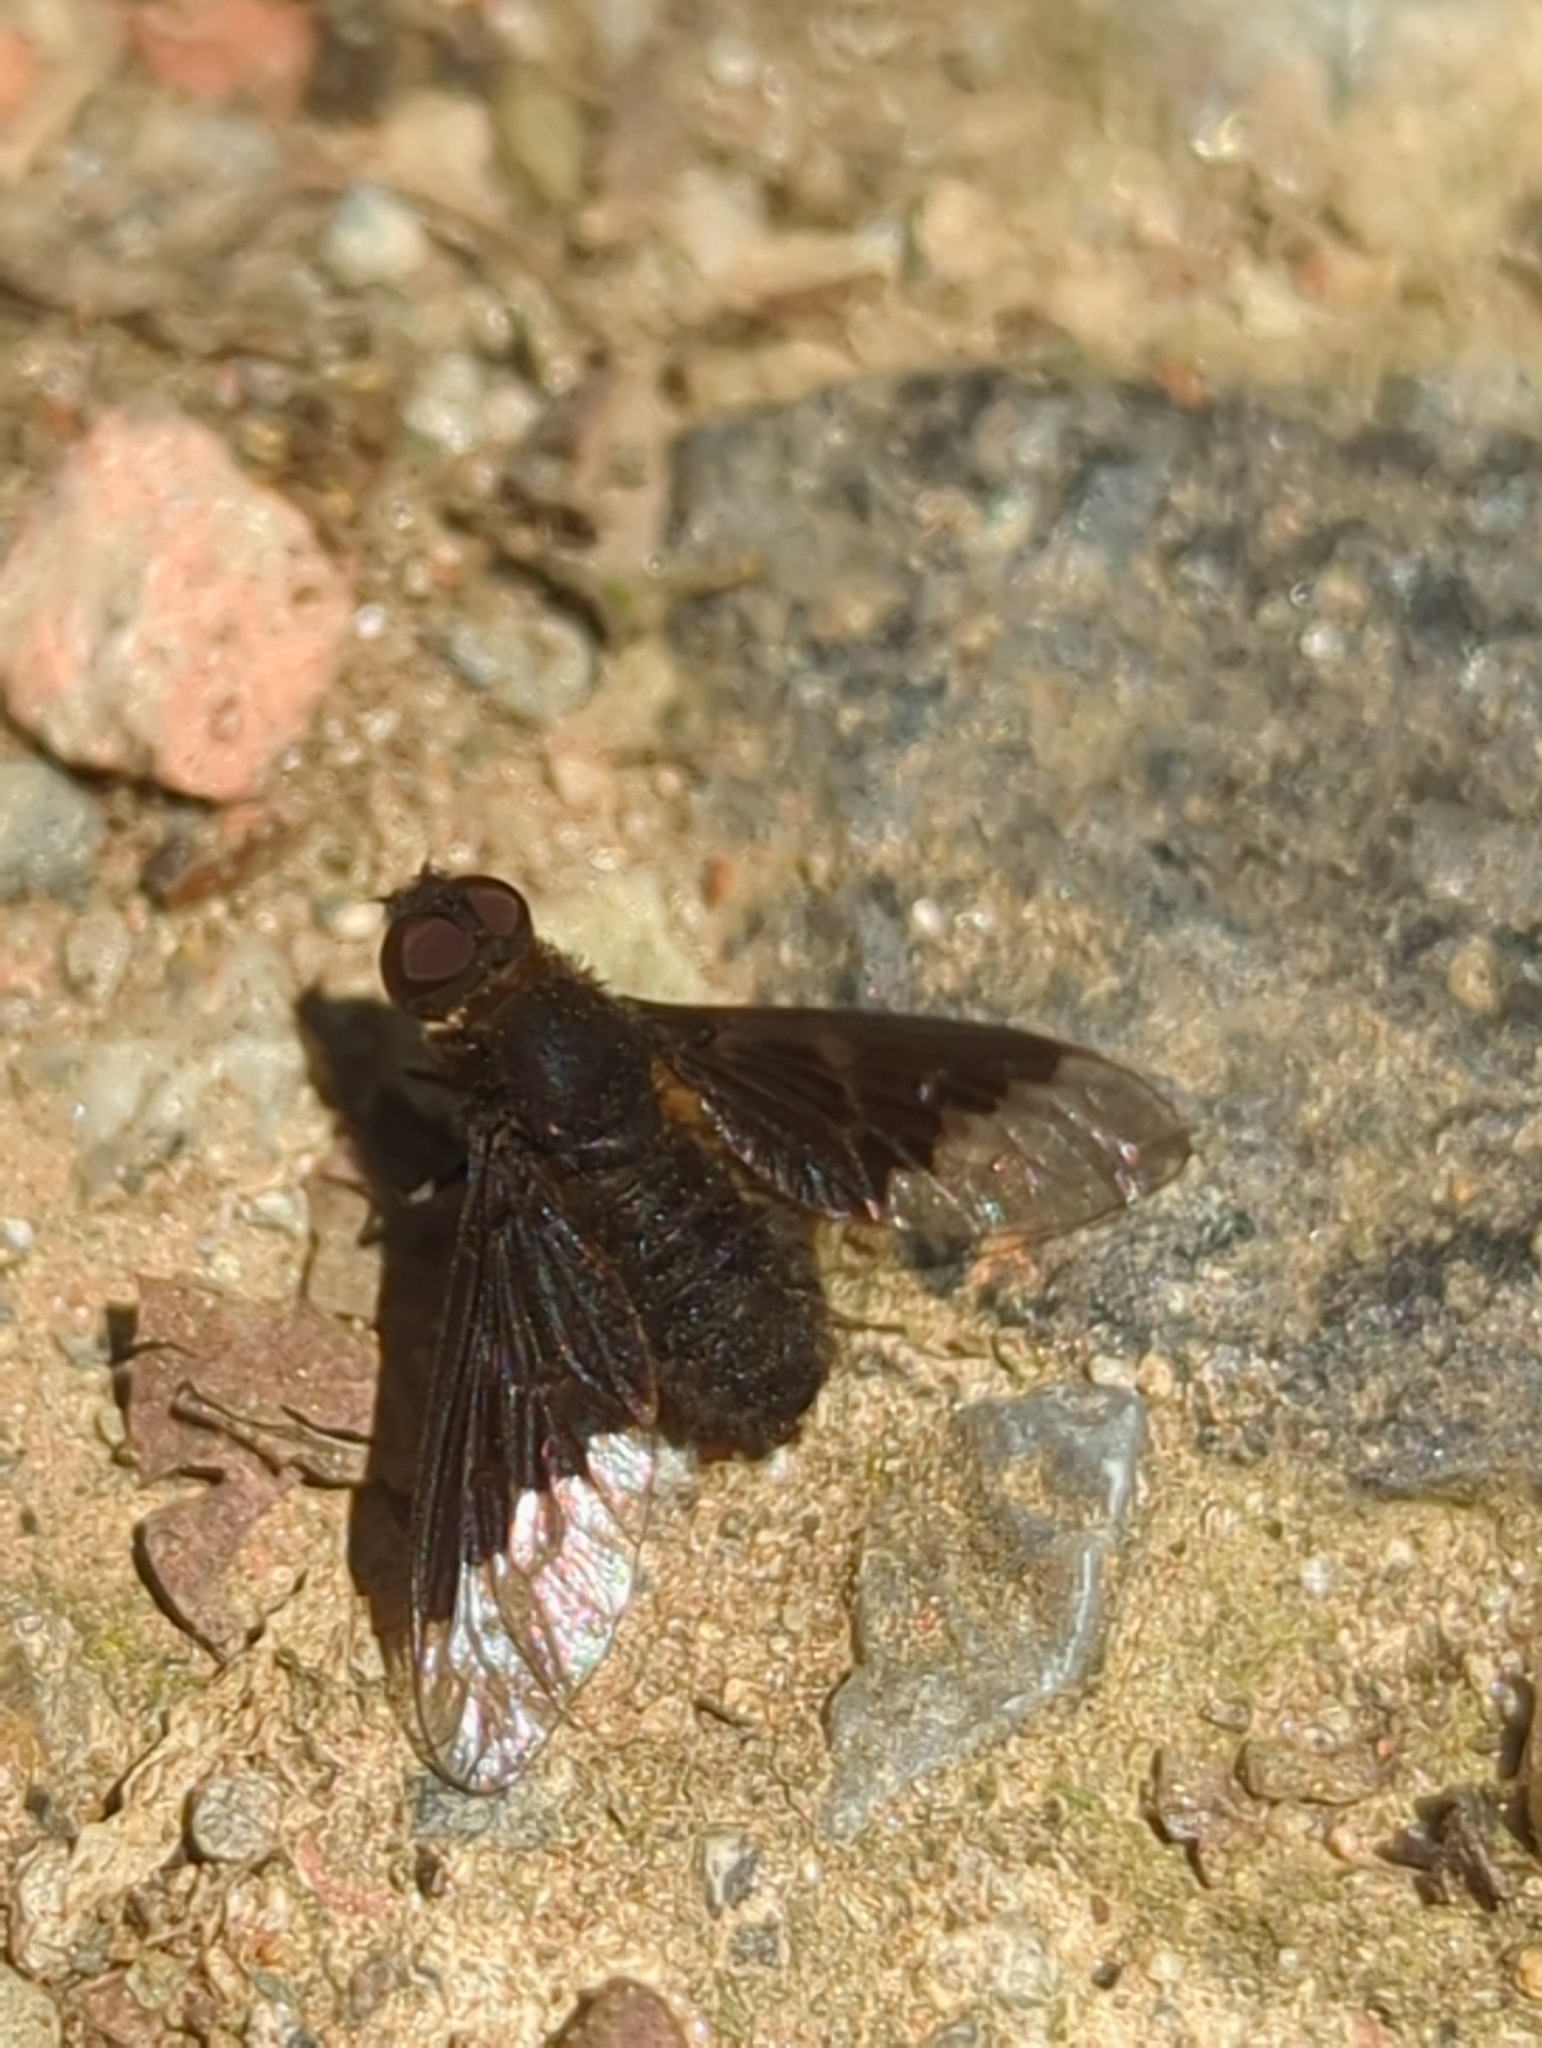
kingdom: Animalia
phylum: Arthropoda
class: Insecta
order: Diptera
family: Bombyliidae
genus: Hemipenthes
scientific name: Hemipenthes morio
